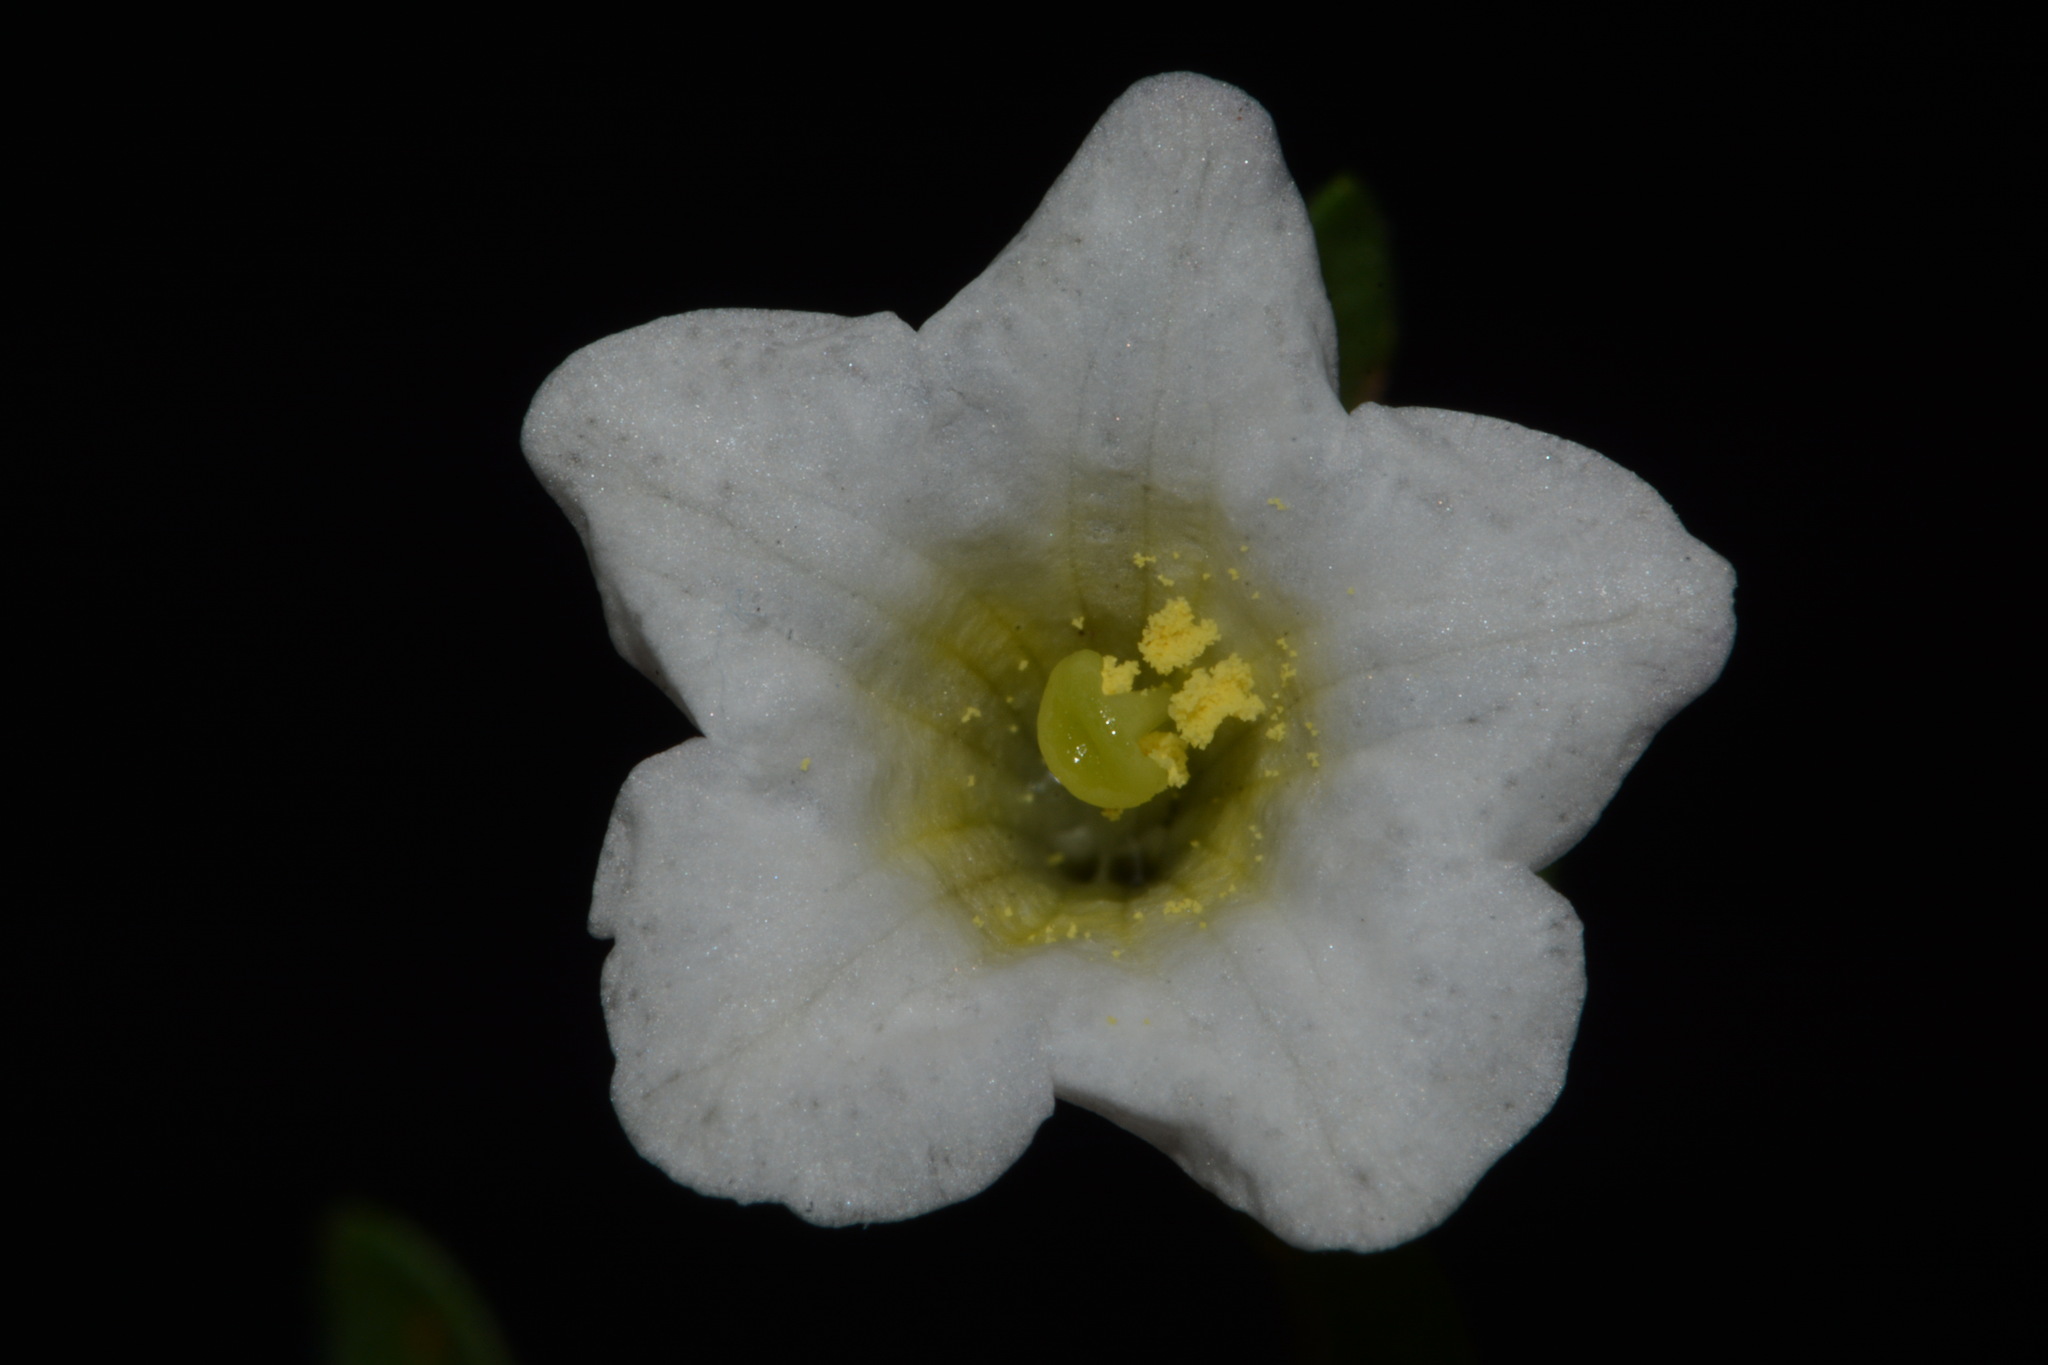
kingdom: Plantae
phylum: Tracheophyta
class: Magnoliopsida
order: Solanales
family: Solanaceae
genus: Salpiglossis
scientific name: Salpiglossis erecta
